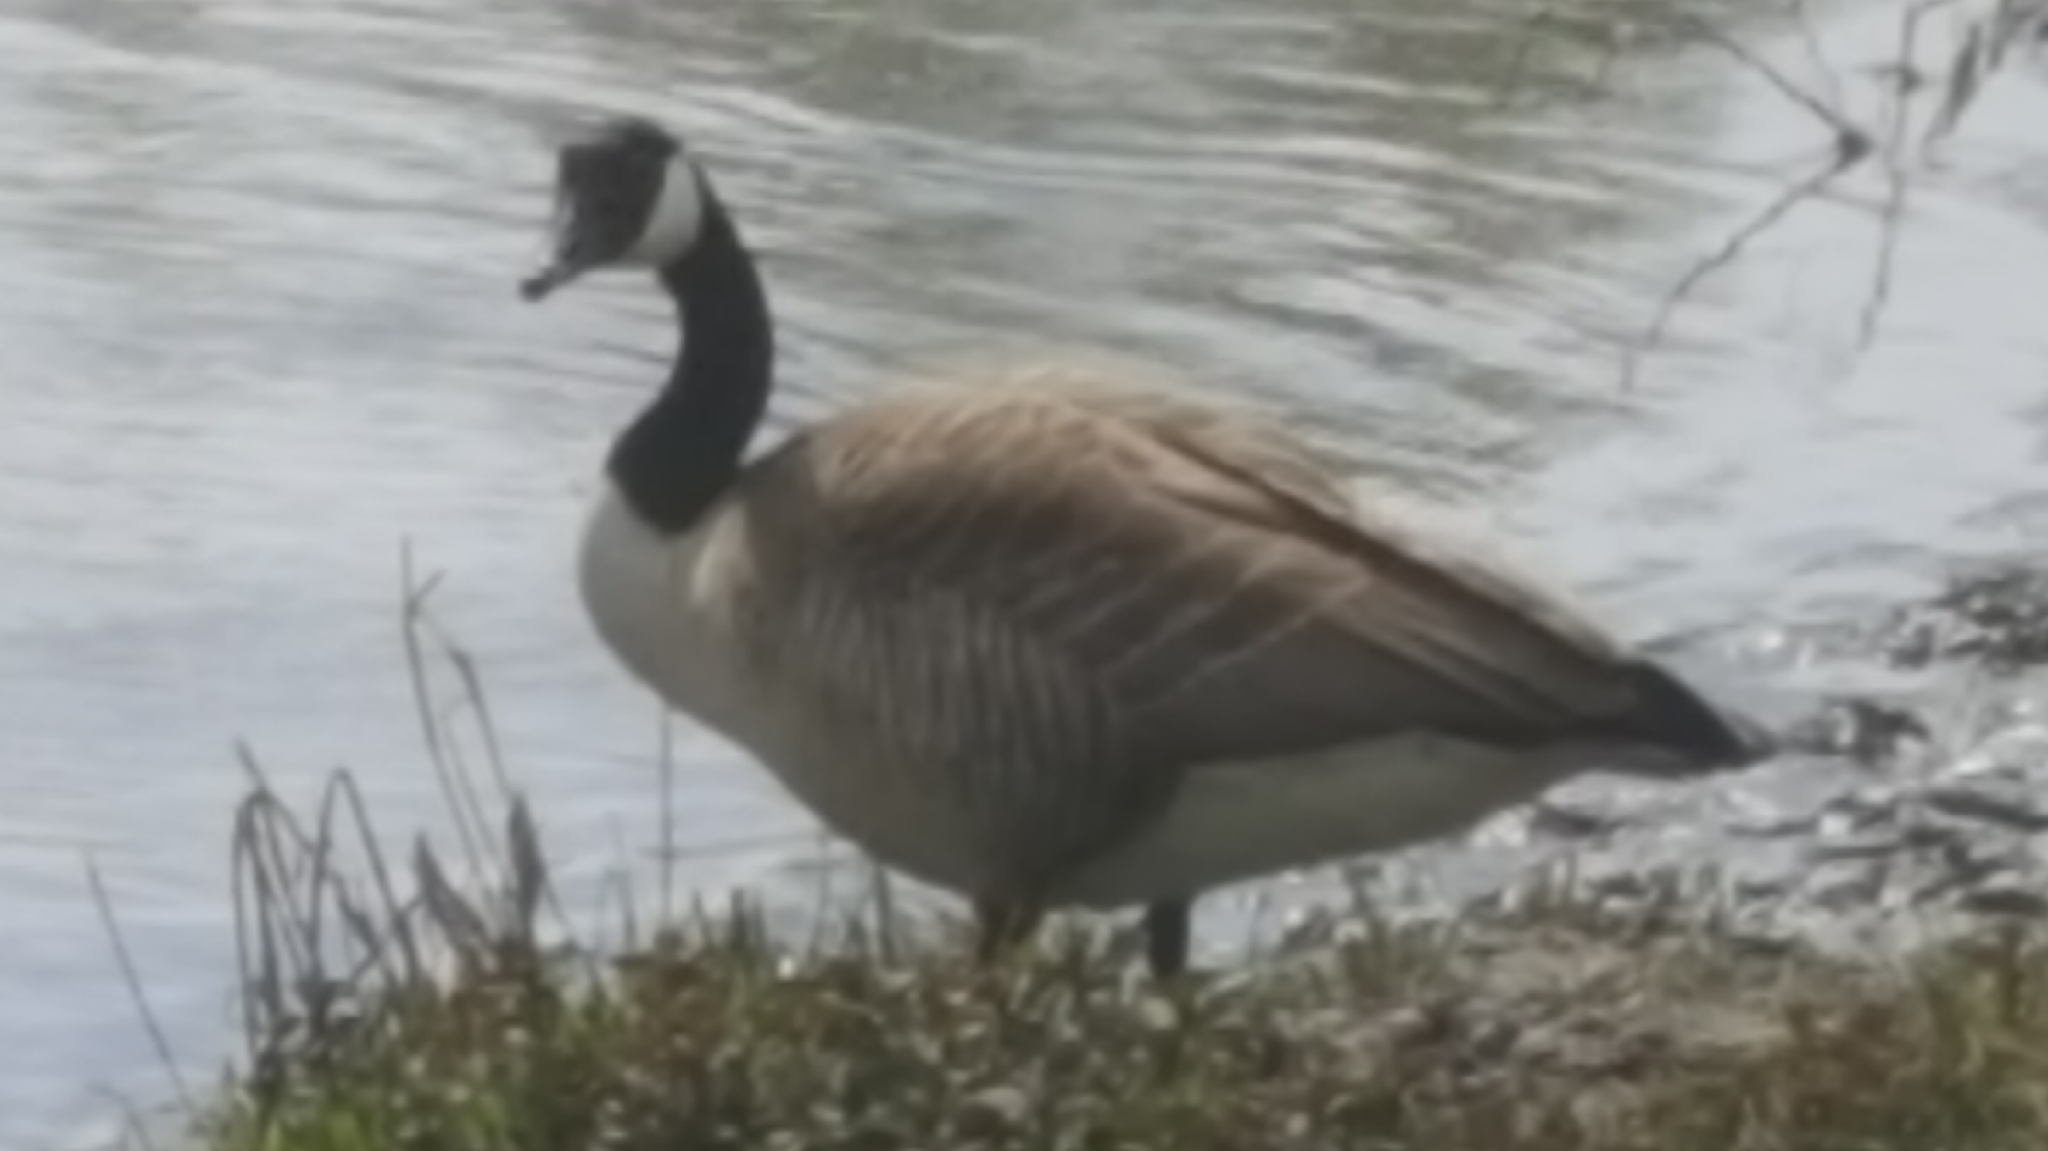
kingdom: Animalia
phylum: Chordata
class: Aves
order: Anseriformes
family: Anatidae
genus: Branta
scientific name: Branta canadensis
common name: Canada goose
